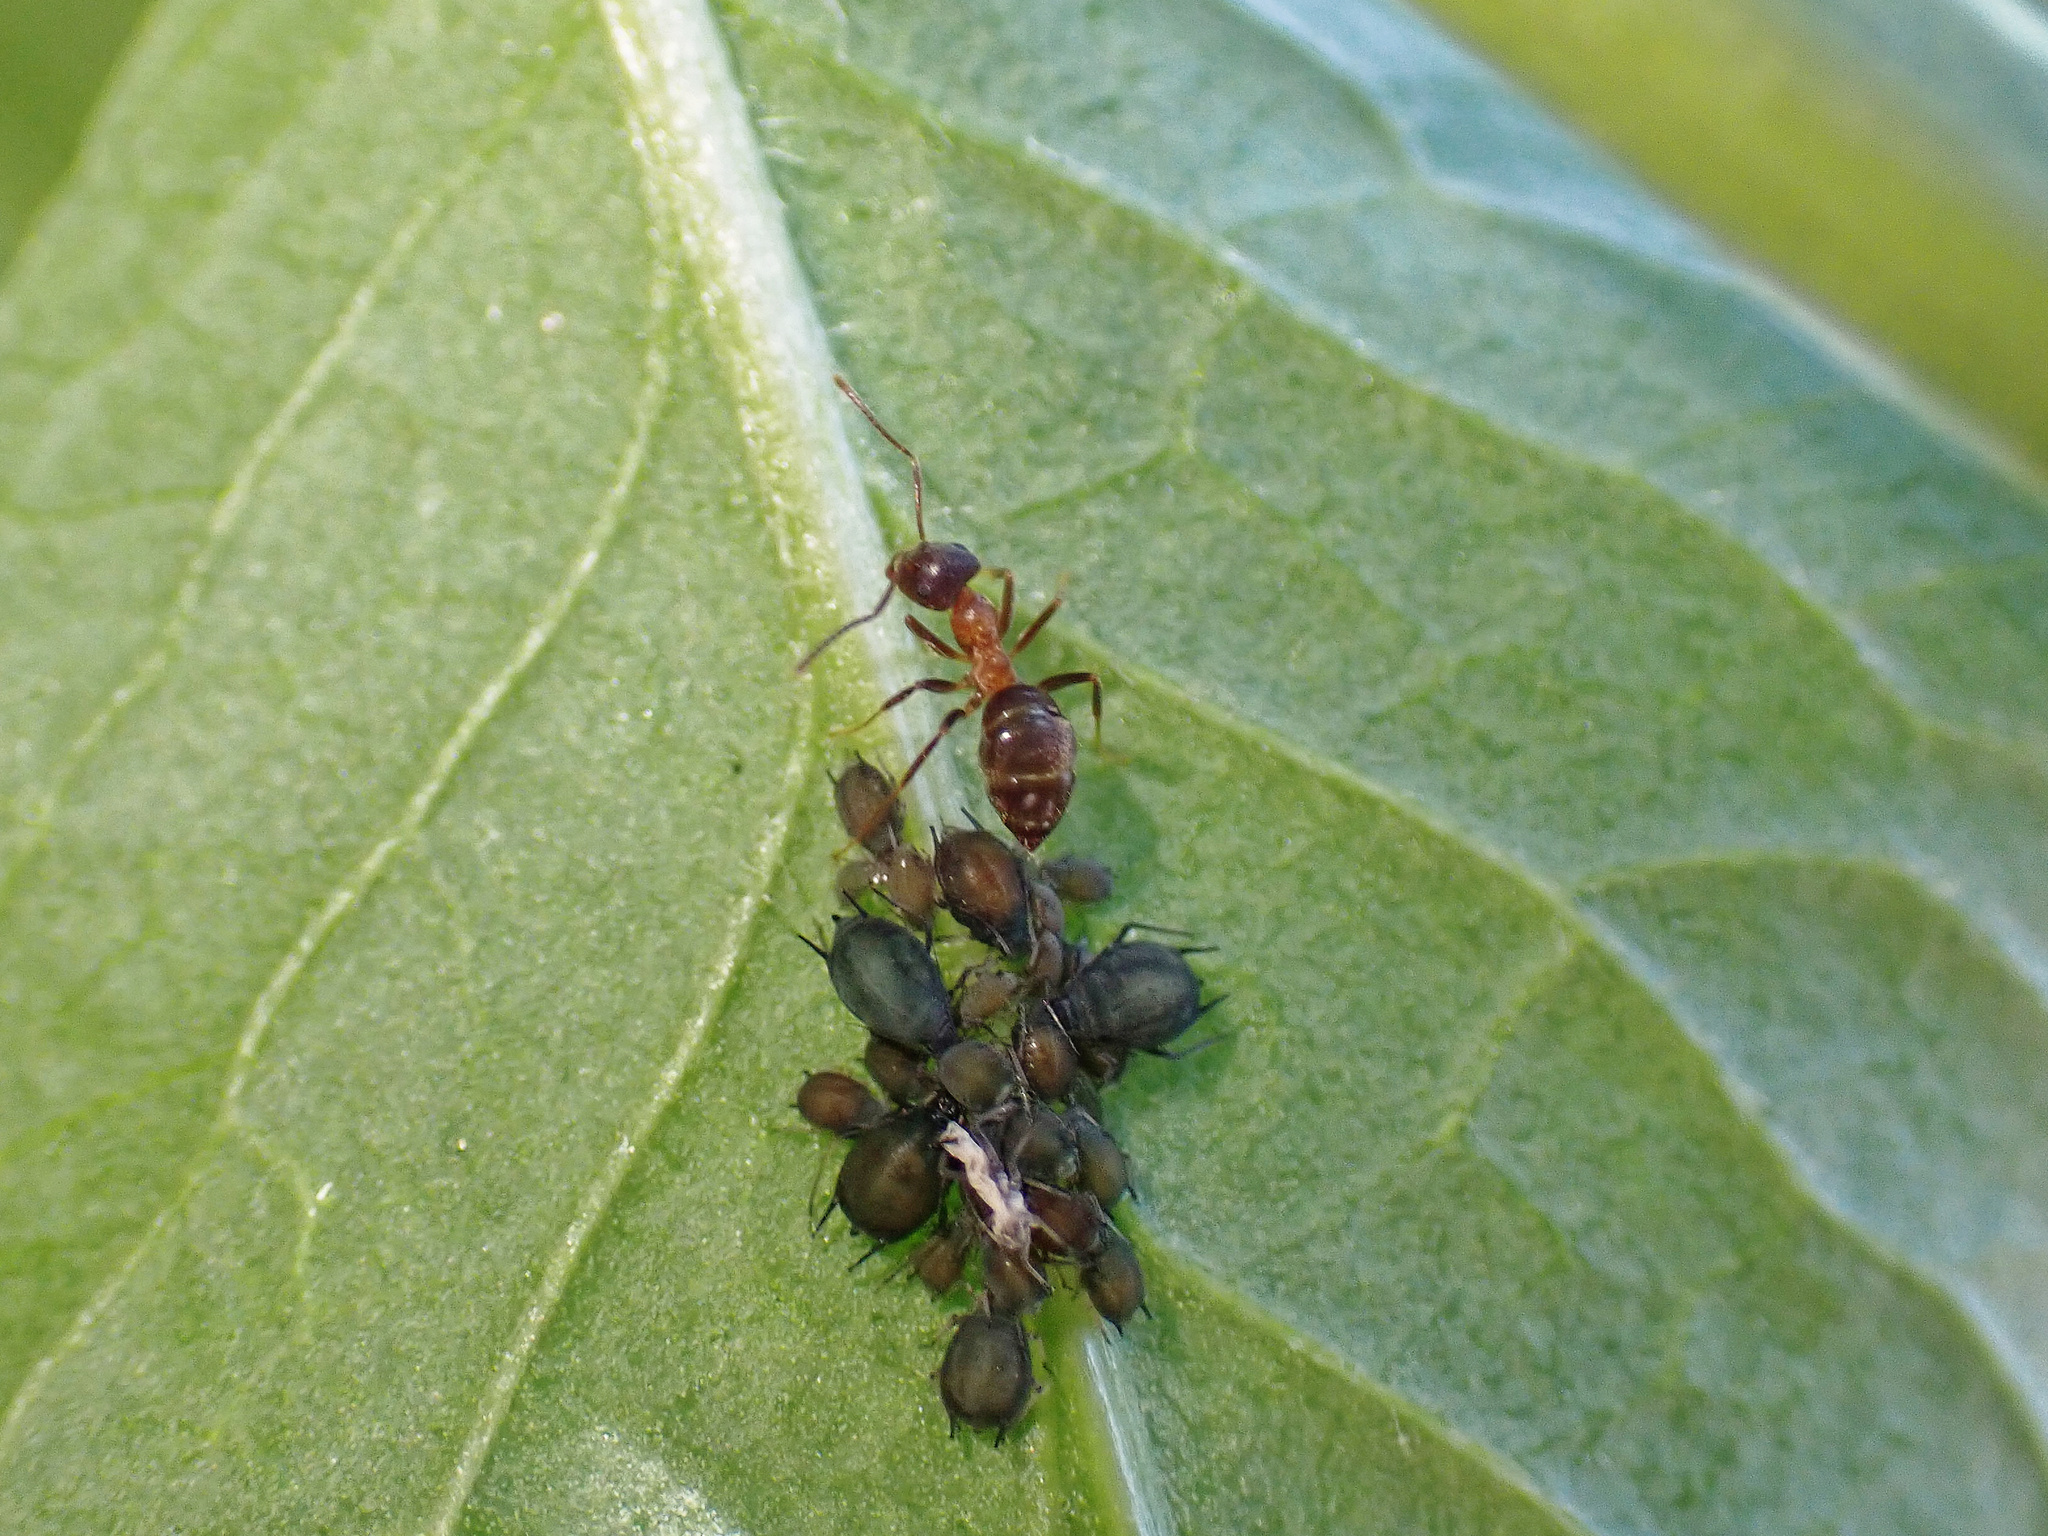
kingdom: Animalia
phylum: Arthropoda
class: Insecta
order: Hymenoptera
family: Formicidae
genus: Lasius
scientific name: Lasius emarginatus
